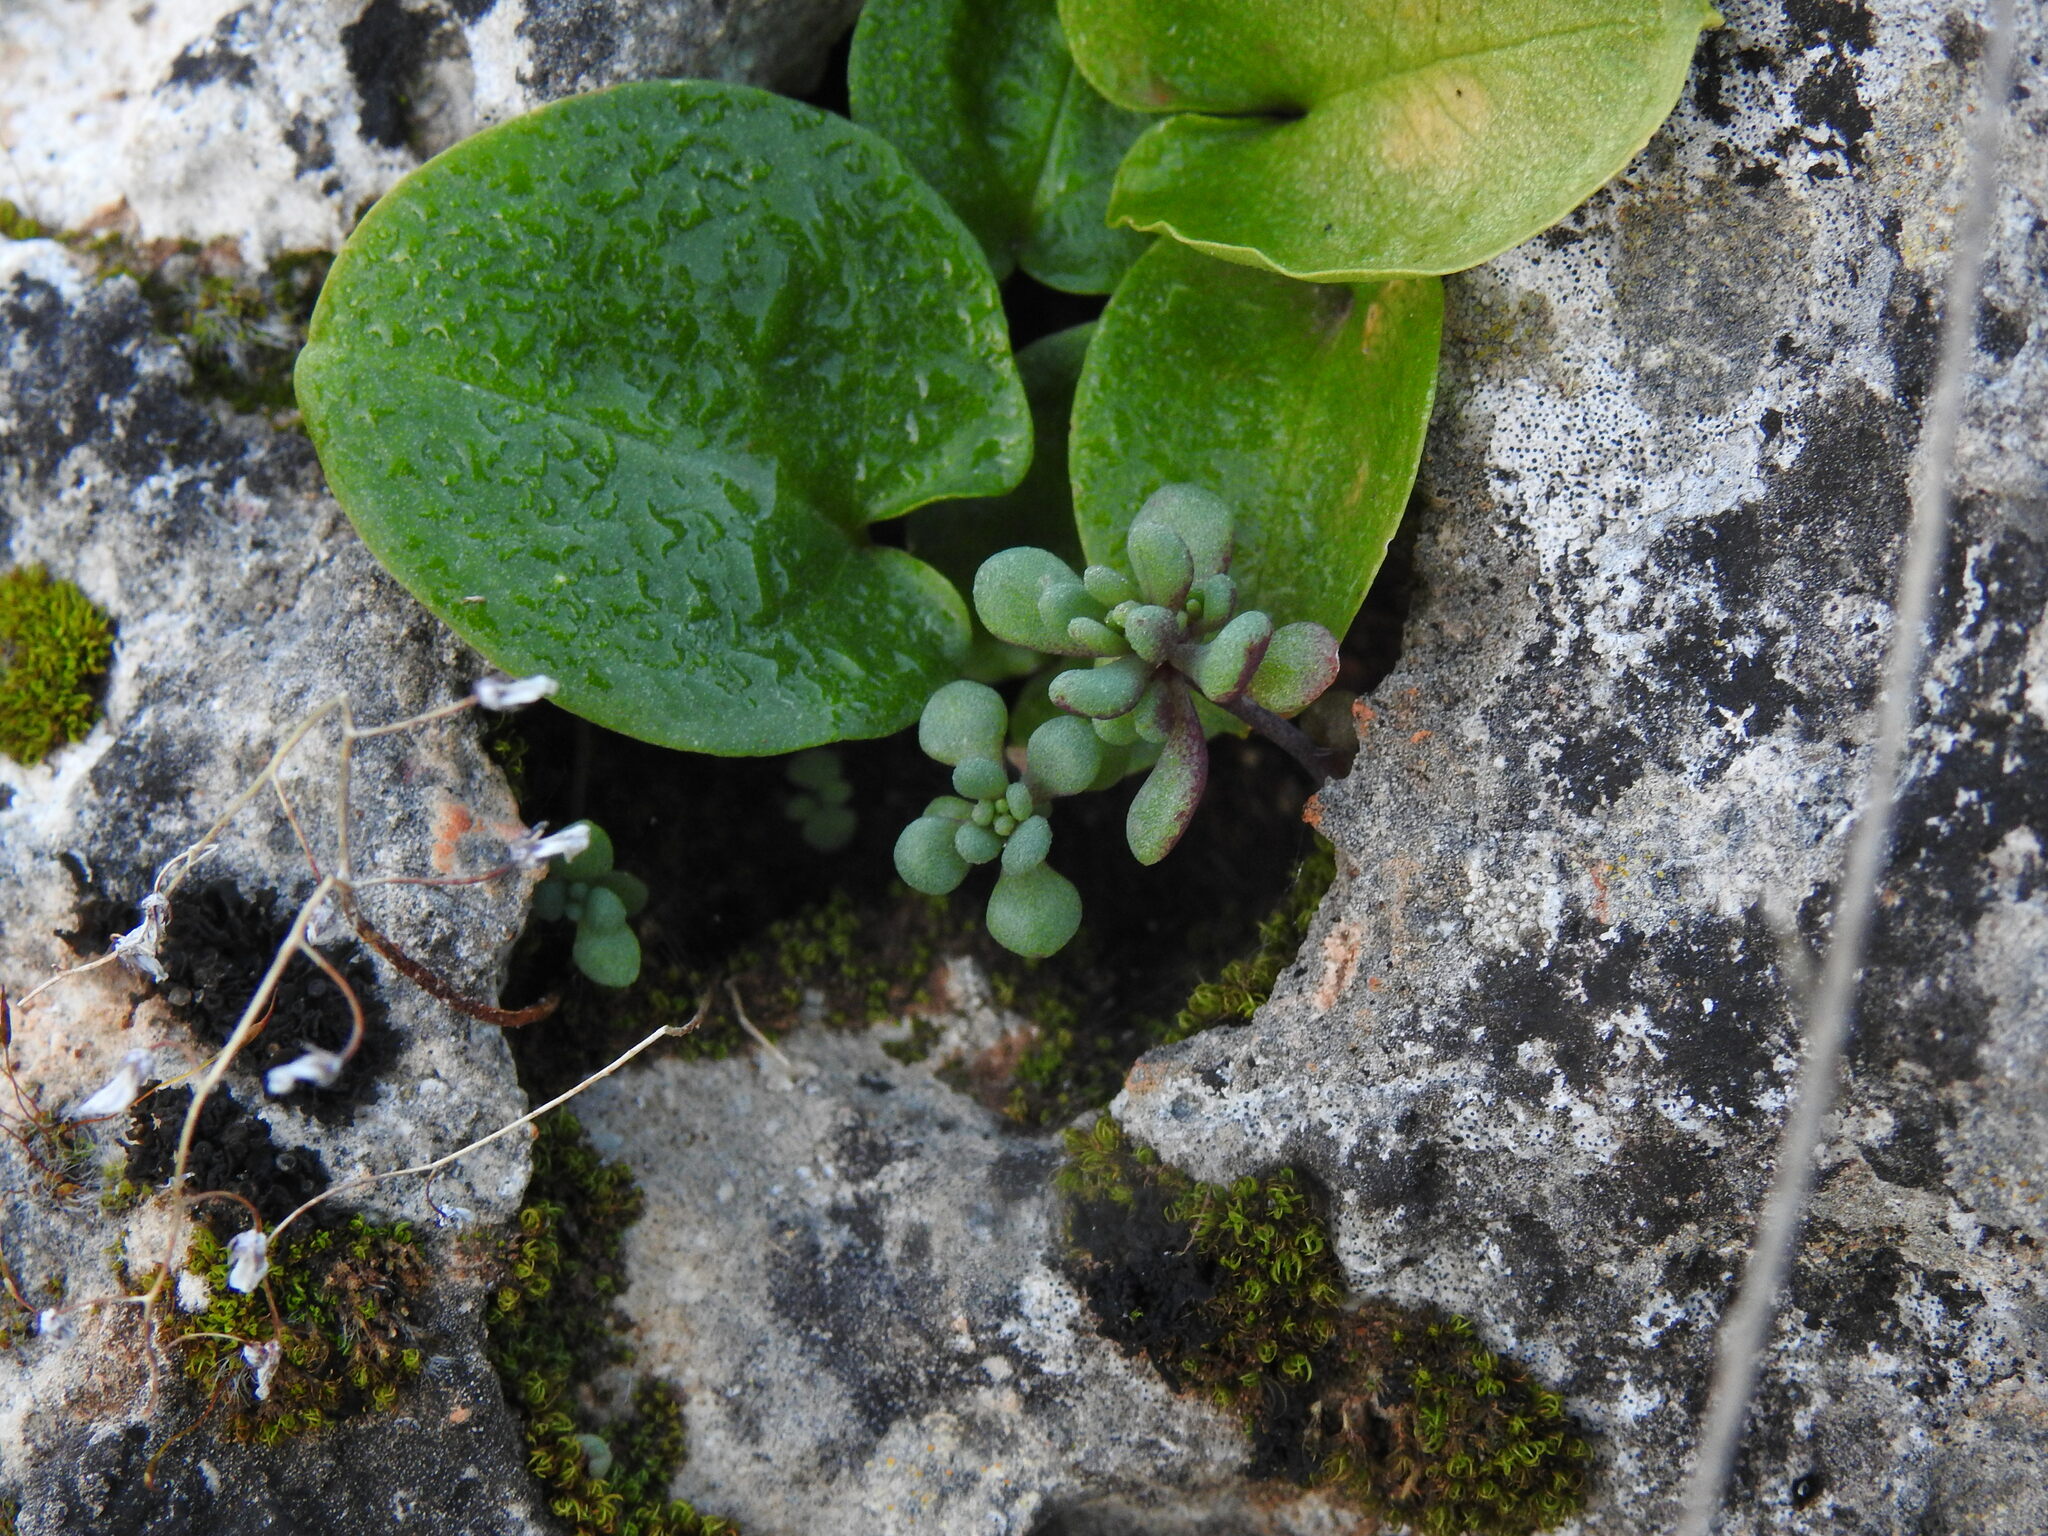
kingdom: Plantae
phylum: Tracheophyta
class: Magnoliopsida
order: Saxifragales
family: Crassulaceae
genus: Sedum
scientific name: Sedum mucizonia
